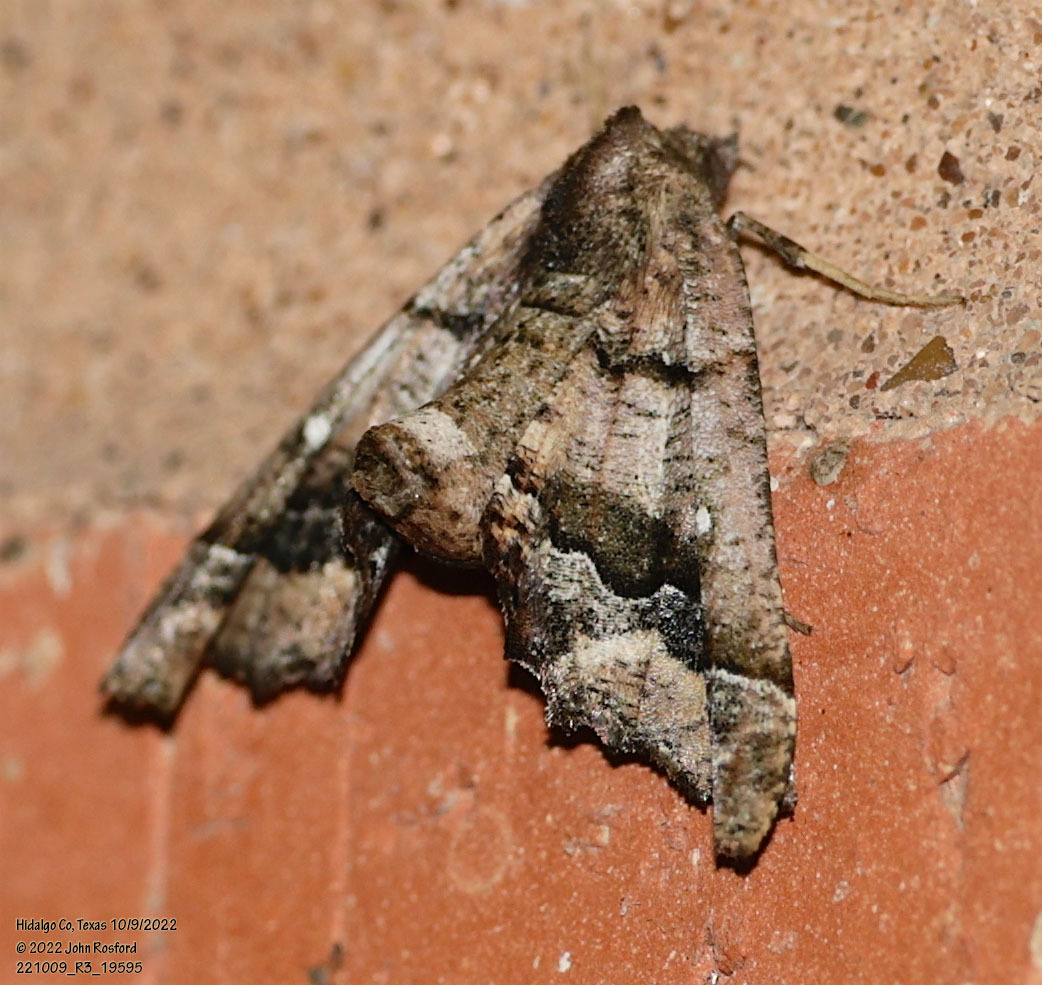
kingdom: Animalia
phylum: Arthropoda
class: Insecta
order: Lepidoptera
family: Geometridae
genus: Pero
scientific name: Pero meskaria
